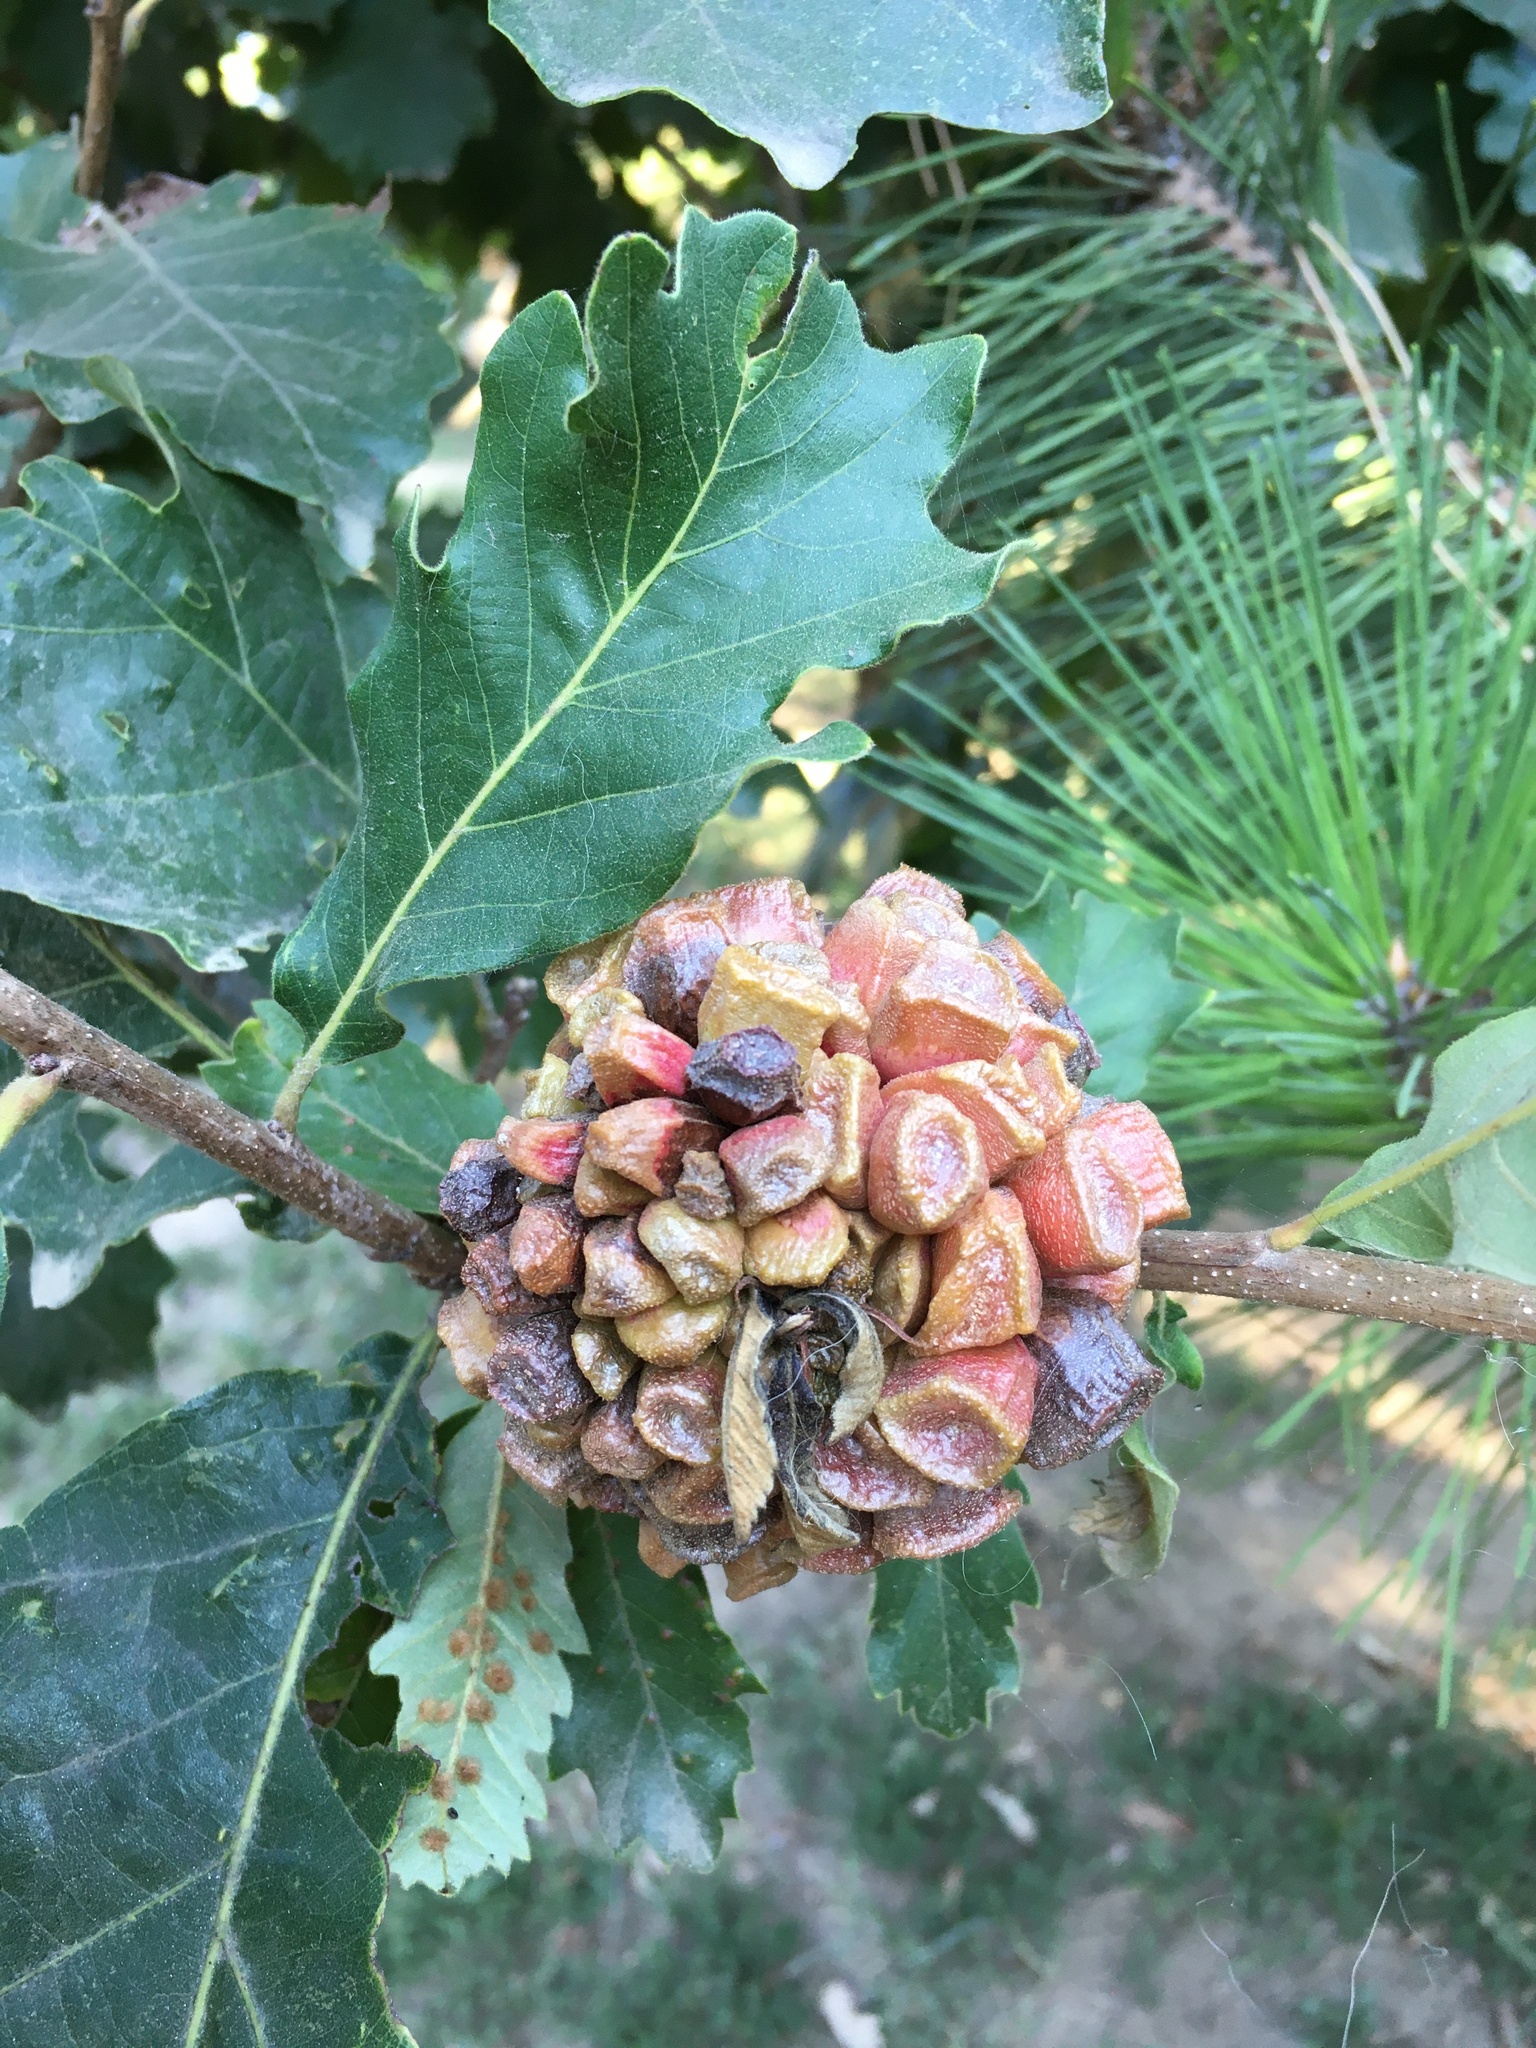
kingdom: Animalia
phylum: Arthropoda
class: Insecta
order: Hymenoptera
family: Cynipidae
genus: Andricus
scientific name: Andricus
